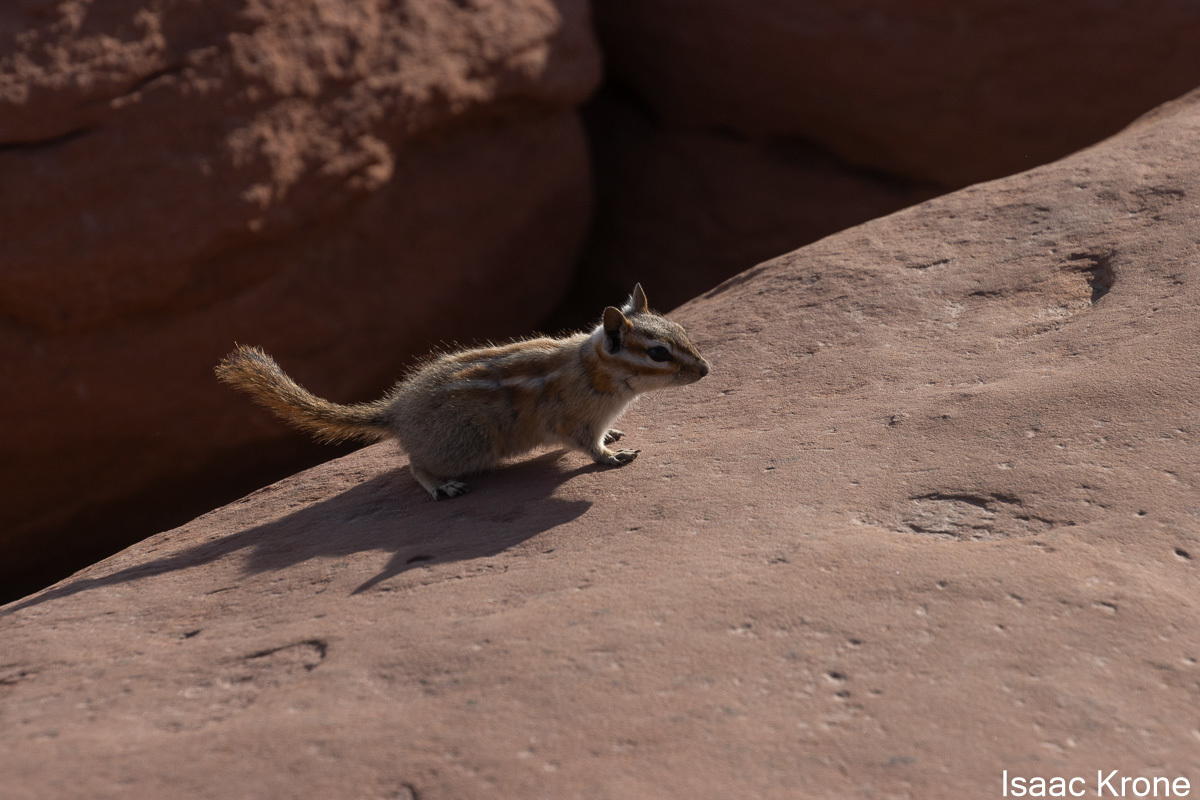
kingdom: Animalia
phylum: Chordata
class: Mammalia
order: Rodentia
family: Sciuridae
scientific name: Sciuridae
